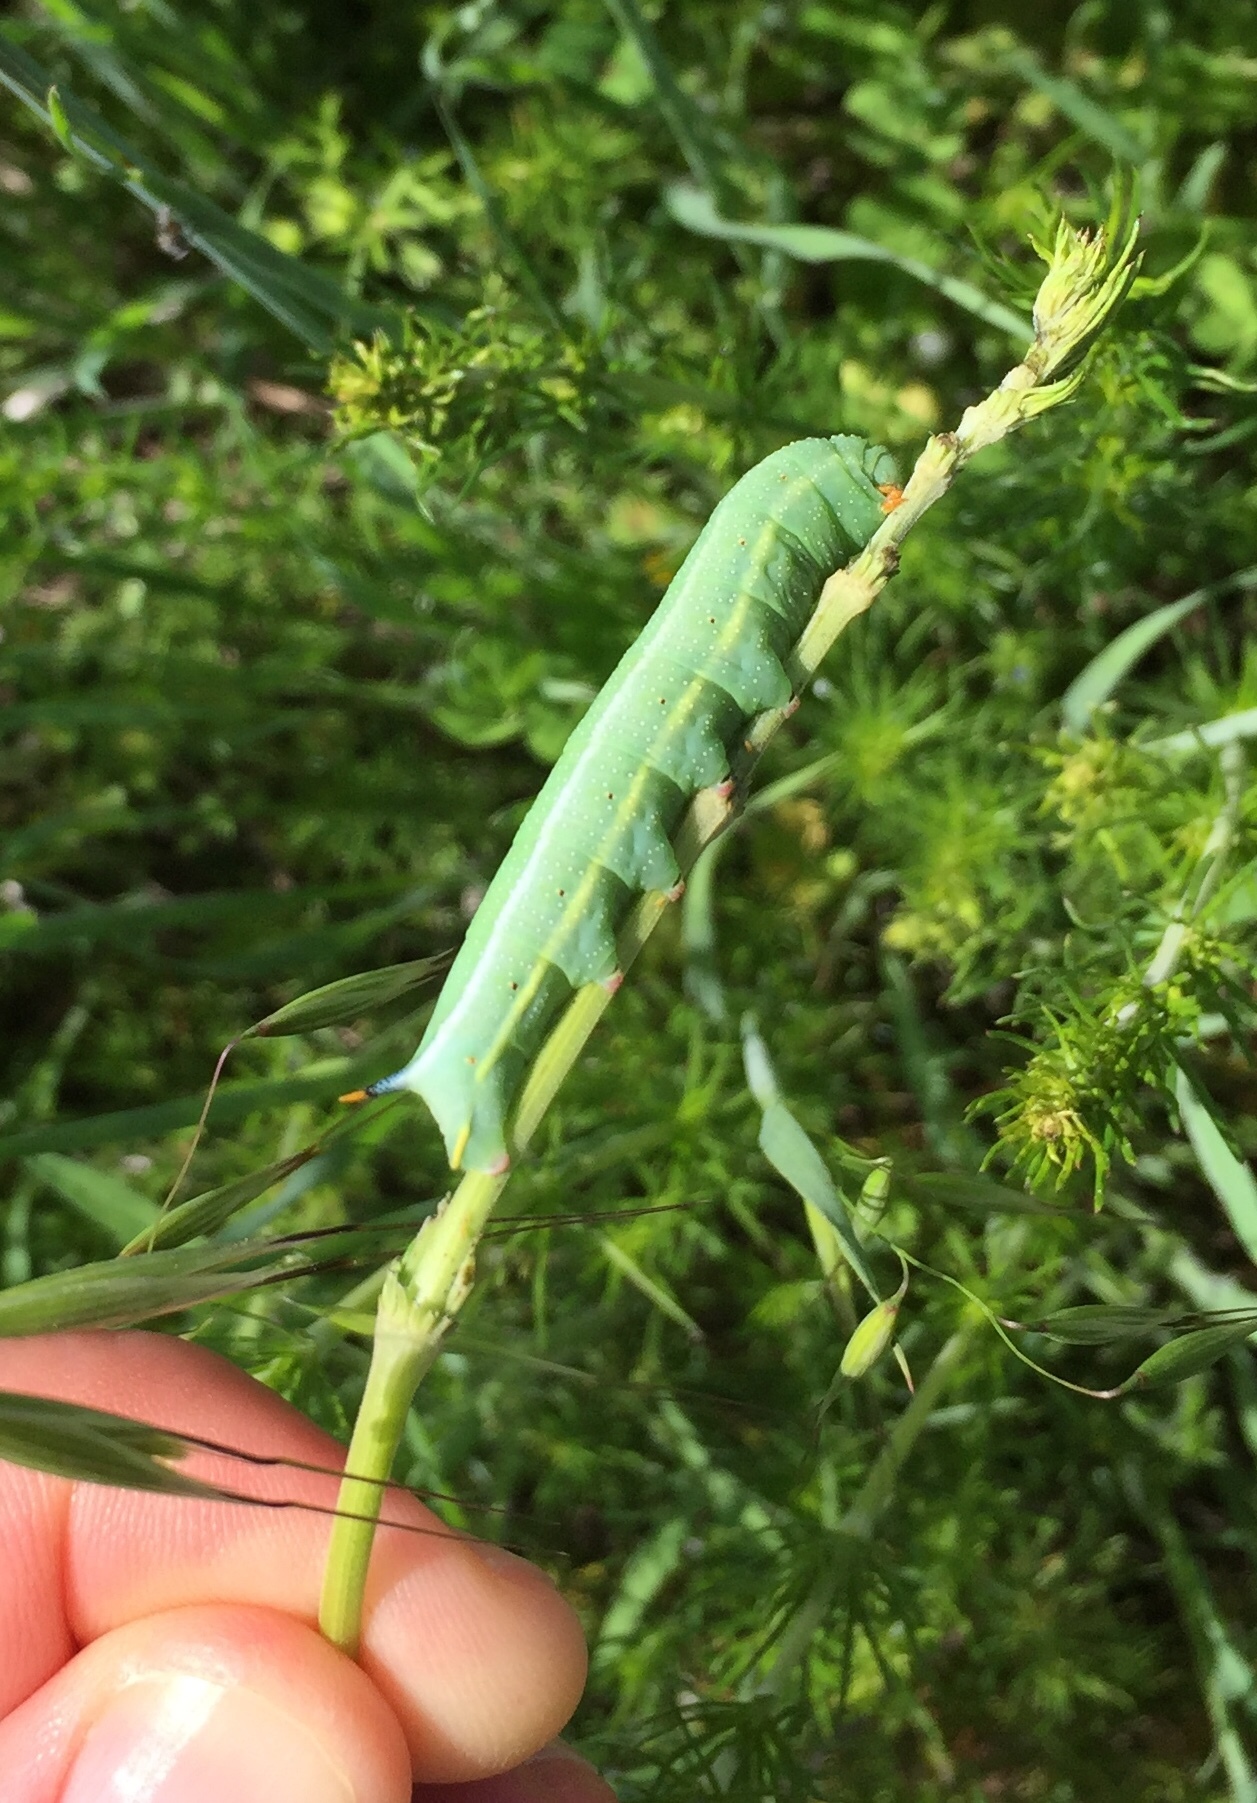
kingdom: Animalia
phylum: Arthropoda
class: Insecta
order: Lepidoptera
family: Sphingidae
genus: Macroglossum
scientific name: Macroglossum stellatarum
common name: Humming-bird hawk-moth
